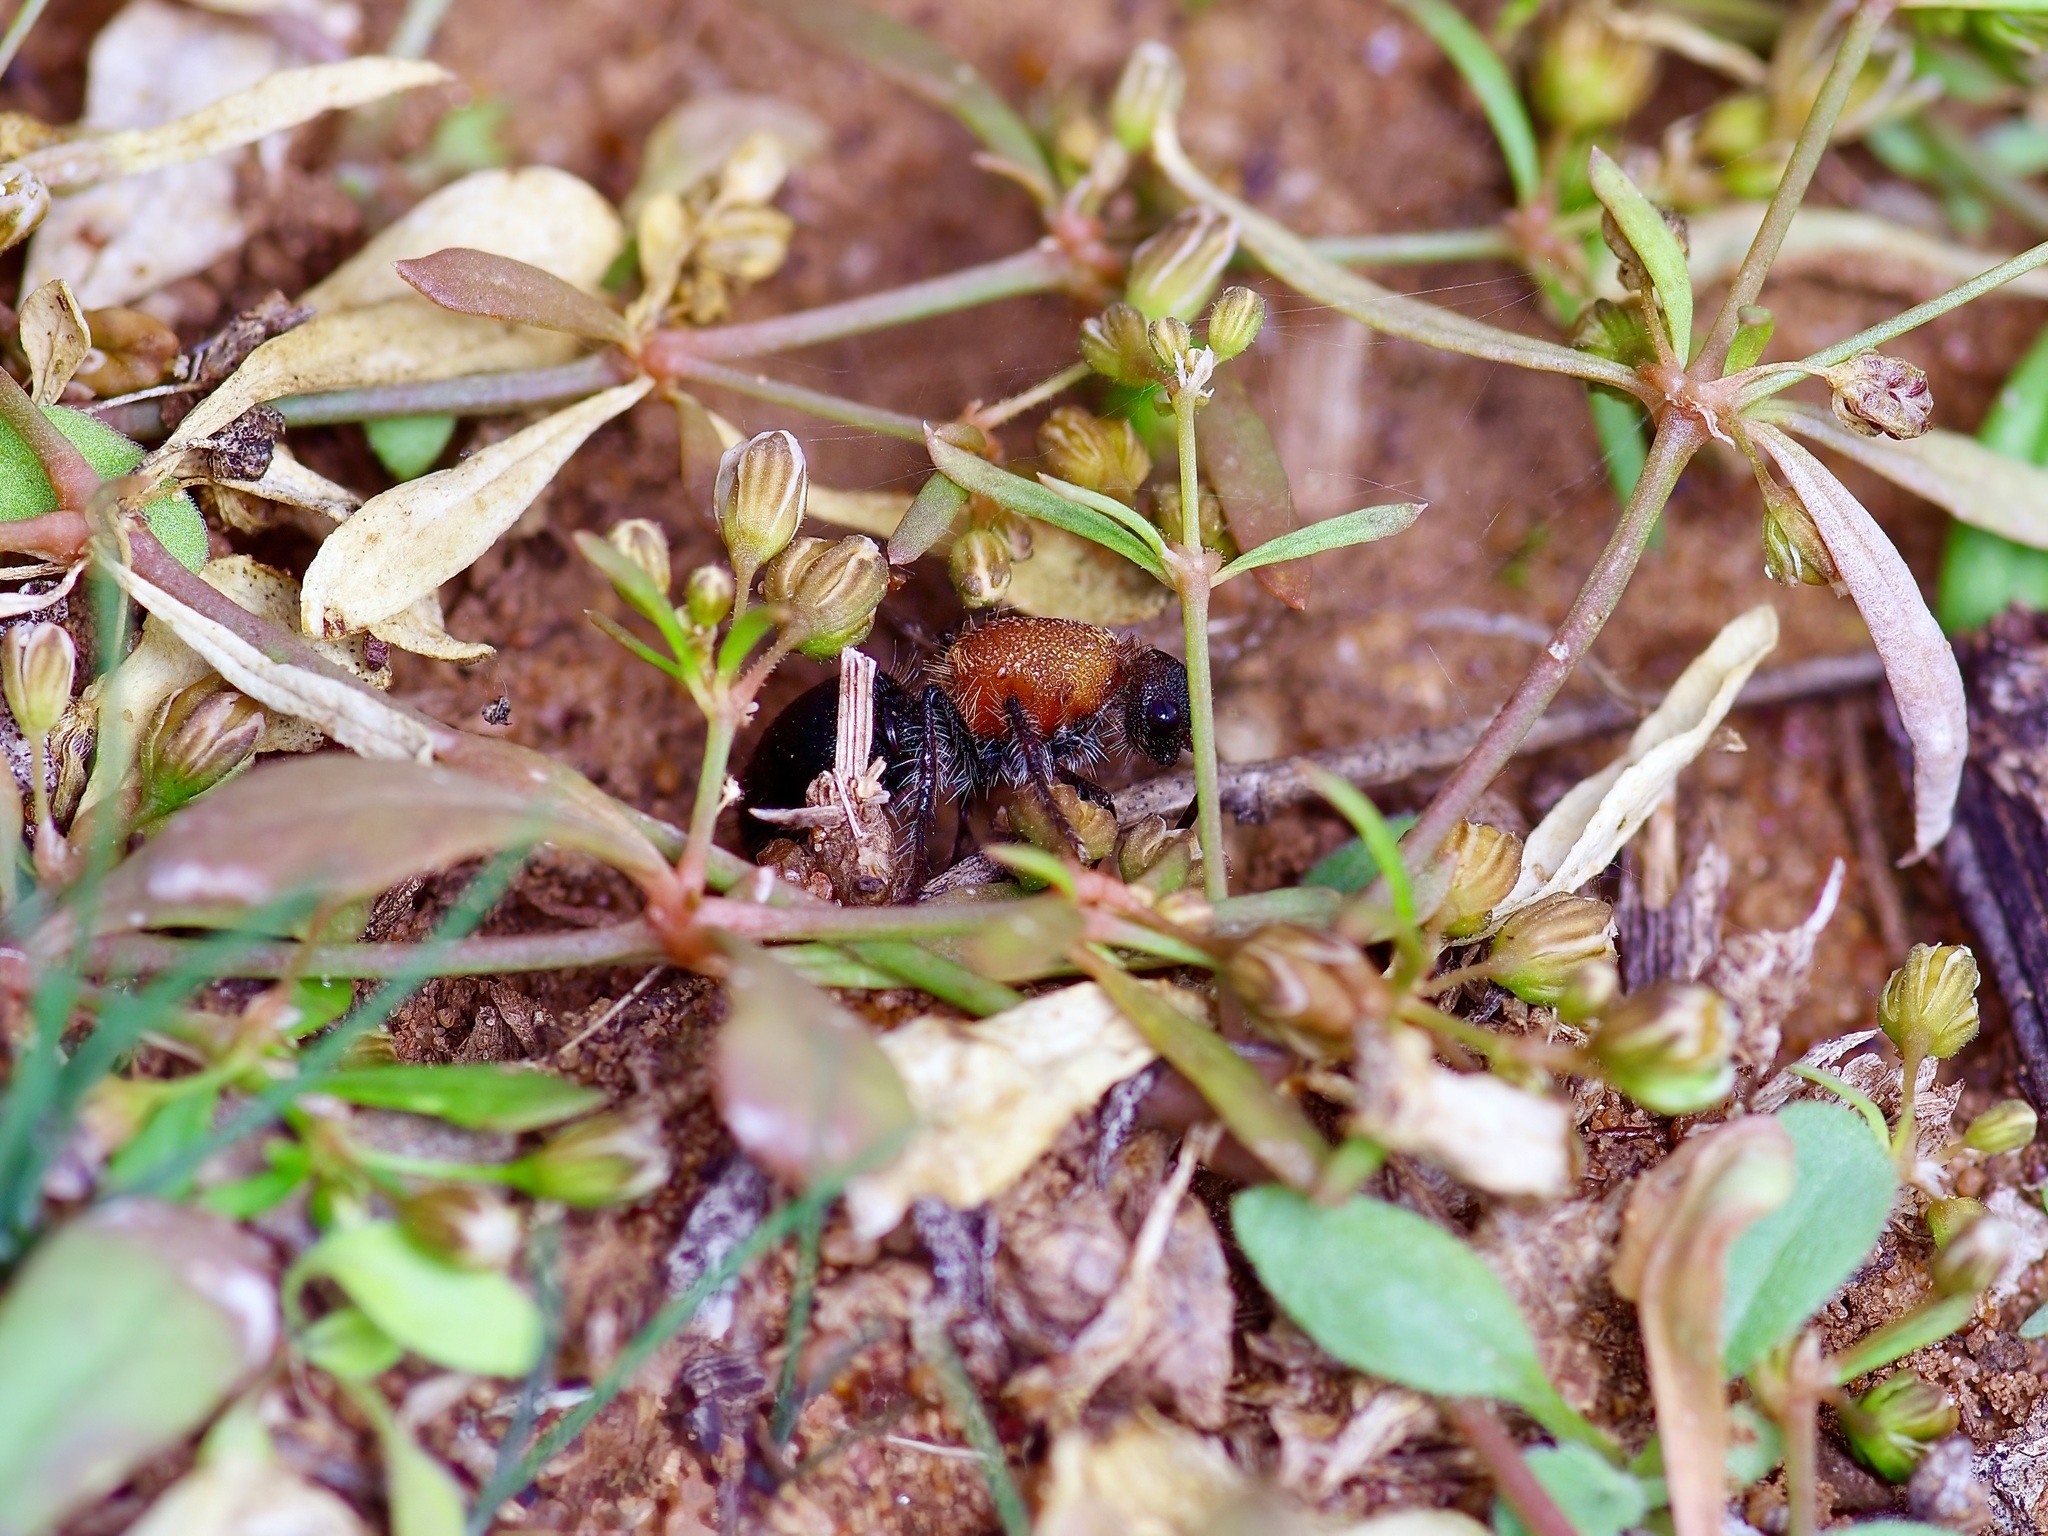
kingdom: Animalia
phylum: Arthropoda
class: Insecta
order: Hymenoptera
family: Mutillidae
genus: Dasymutilla
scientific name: Dasymutilla
